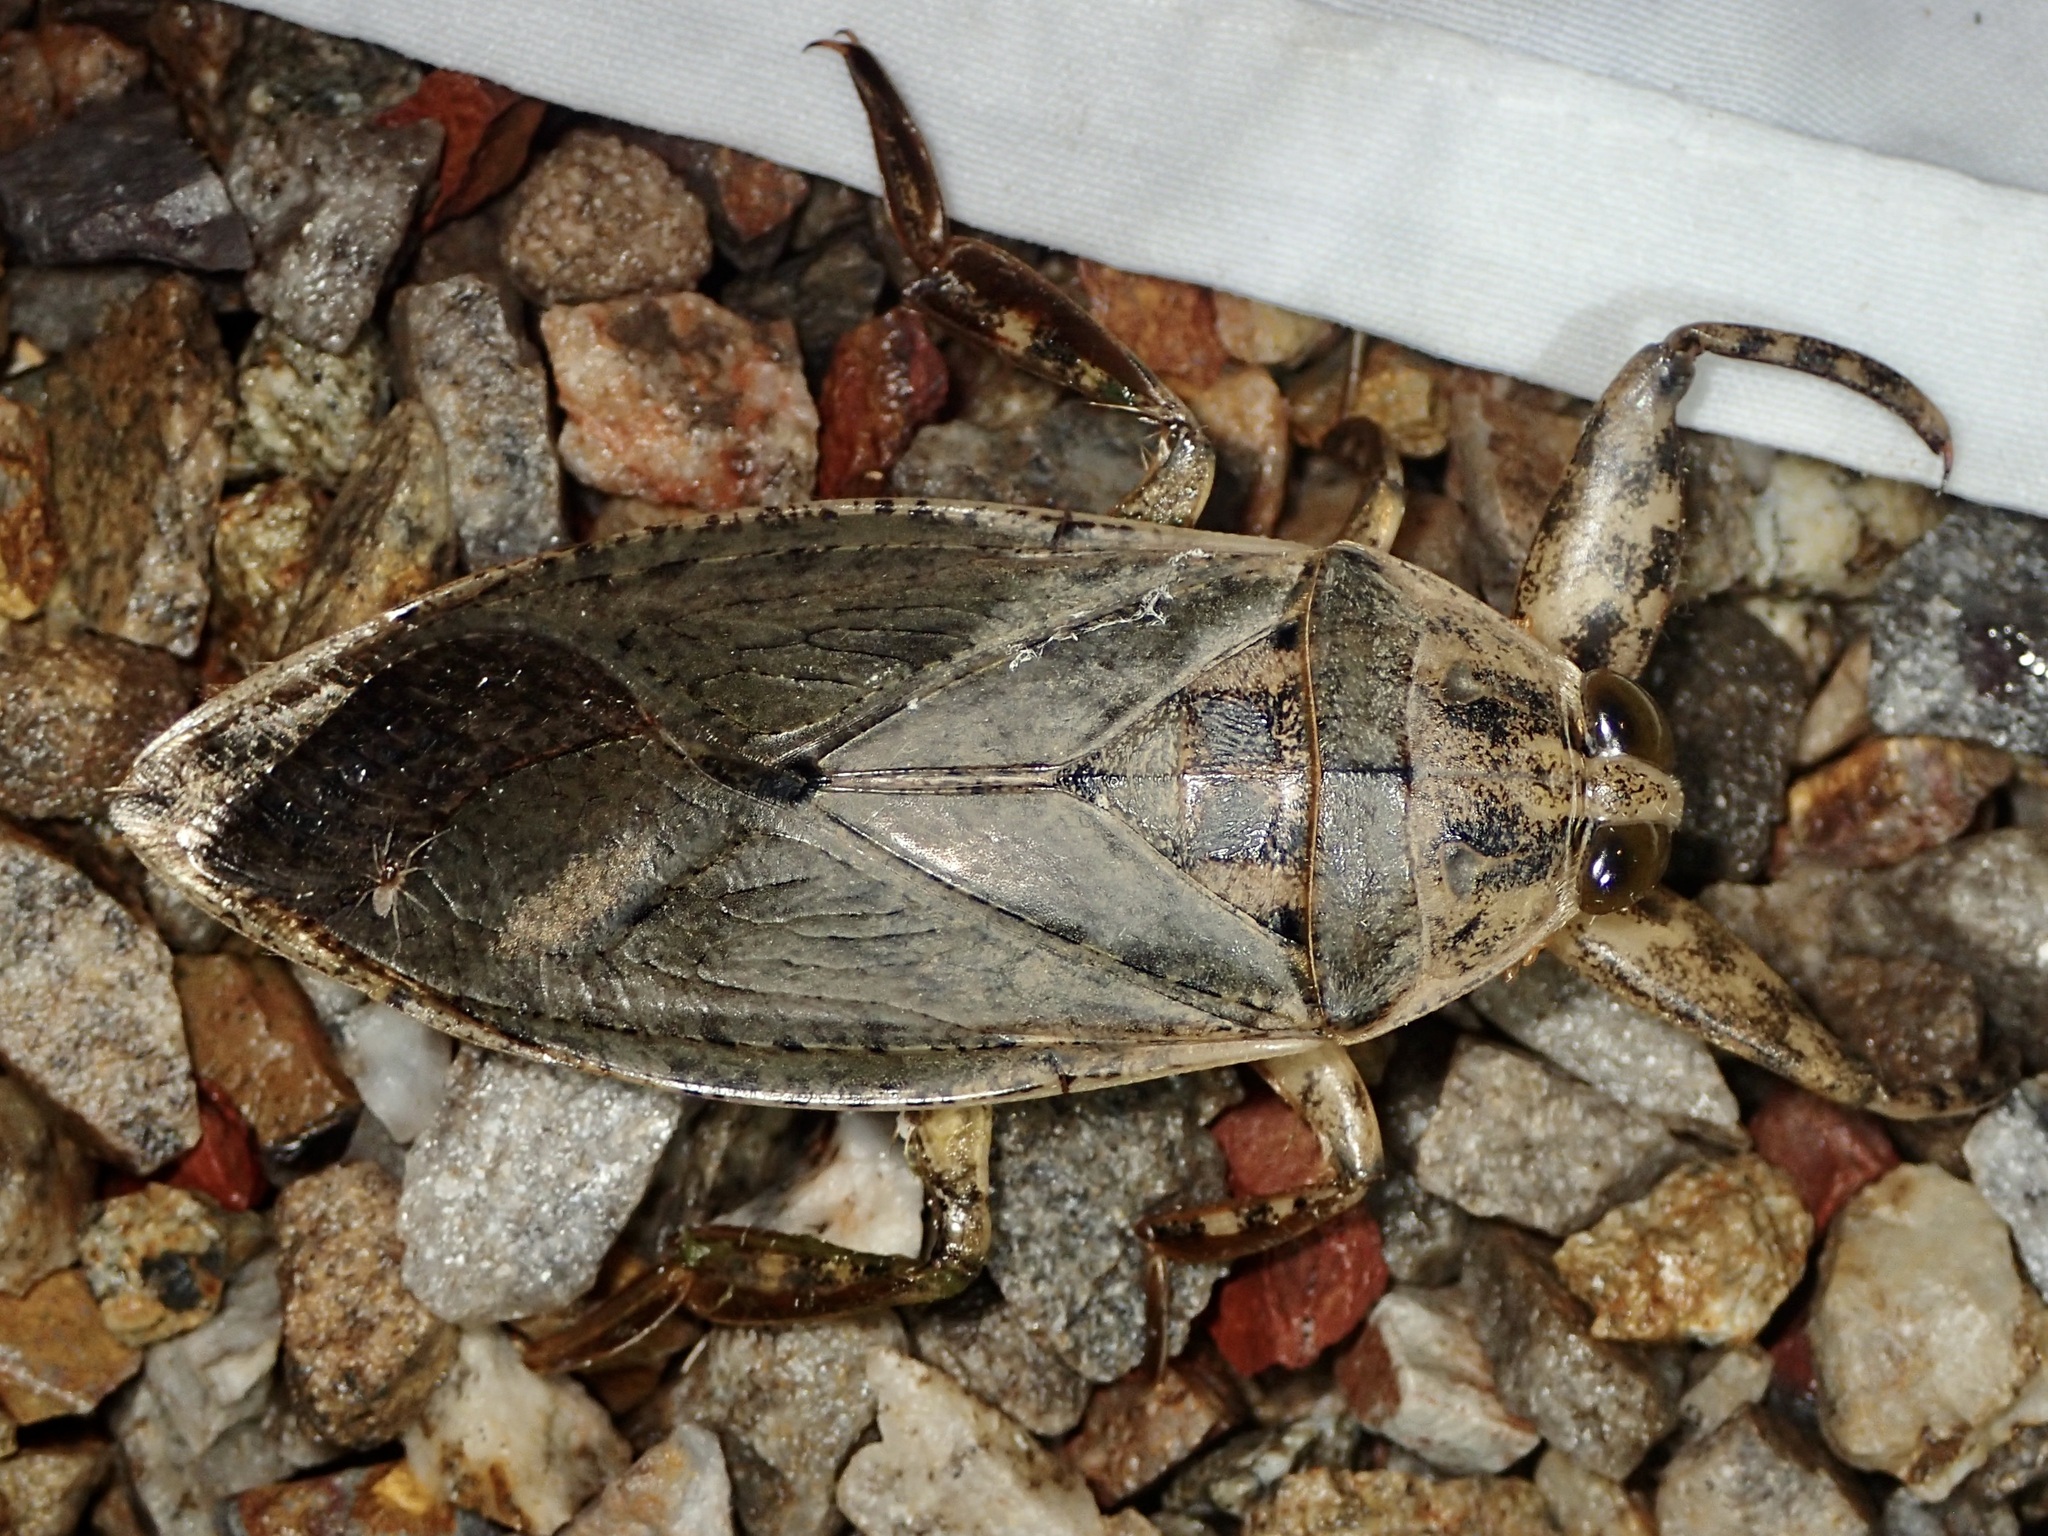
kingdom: Animalia
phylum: Arthropoda
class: Insecta
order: Hemiptera
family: Belostomatidae
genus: Lethocerus
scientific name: Lethocerus medius
